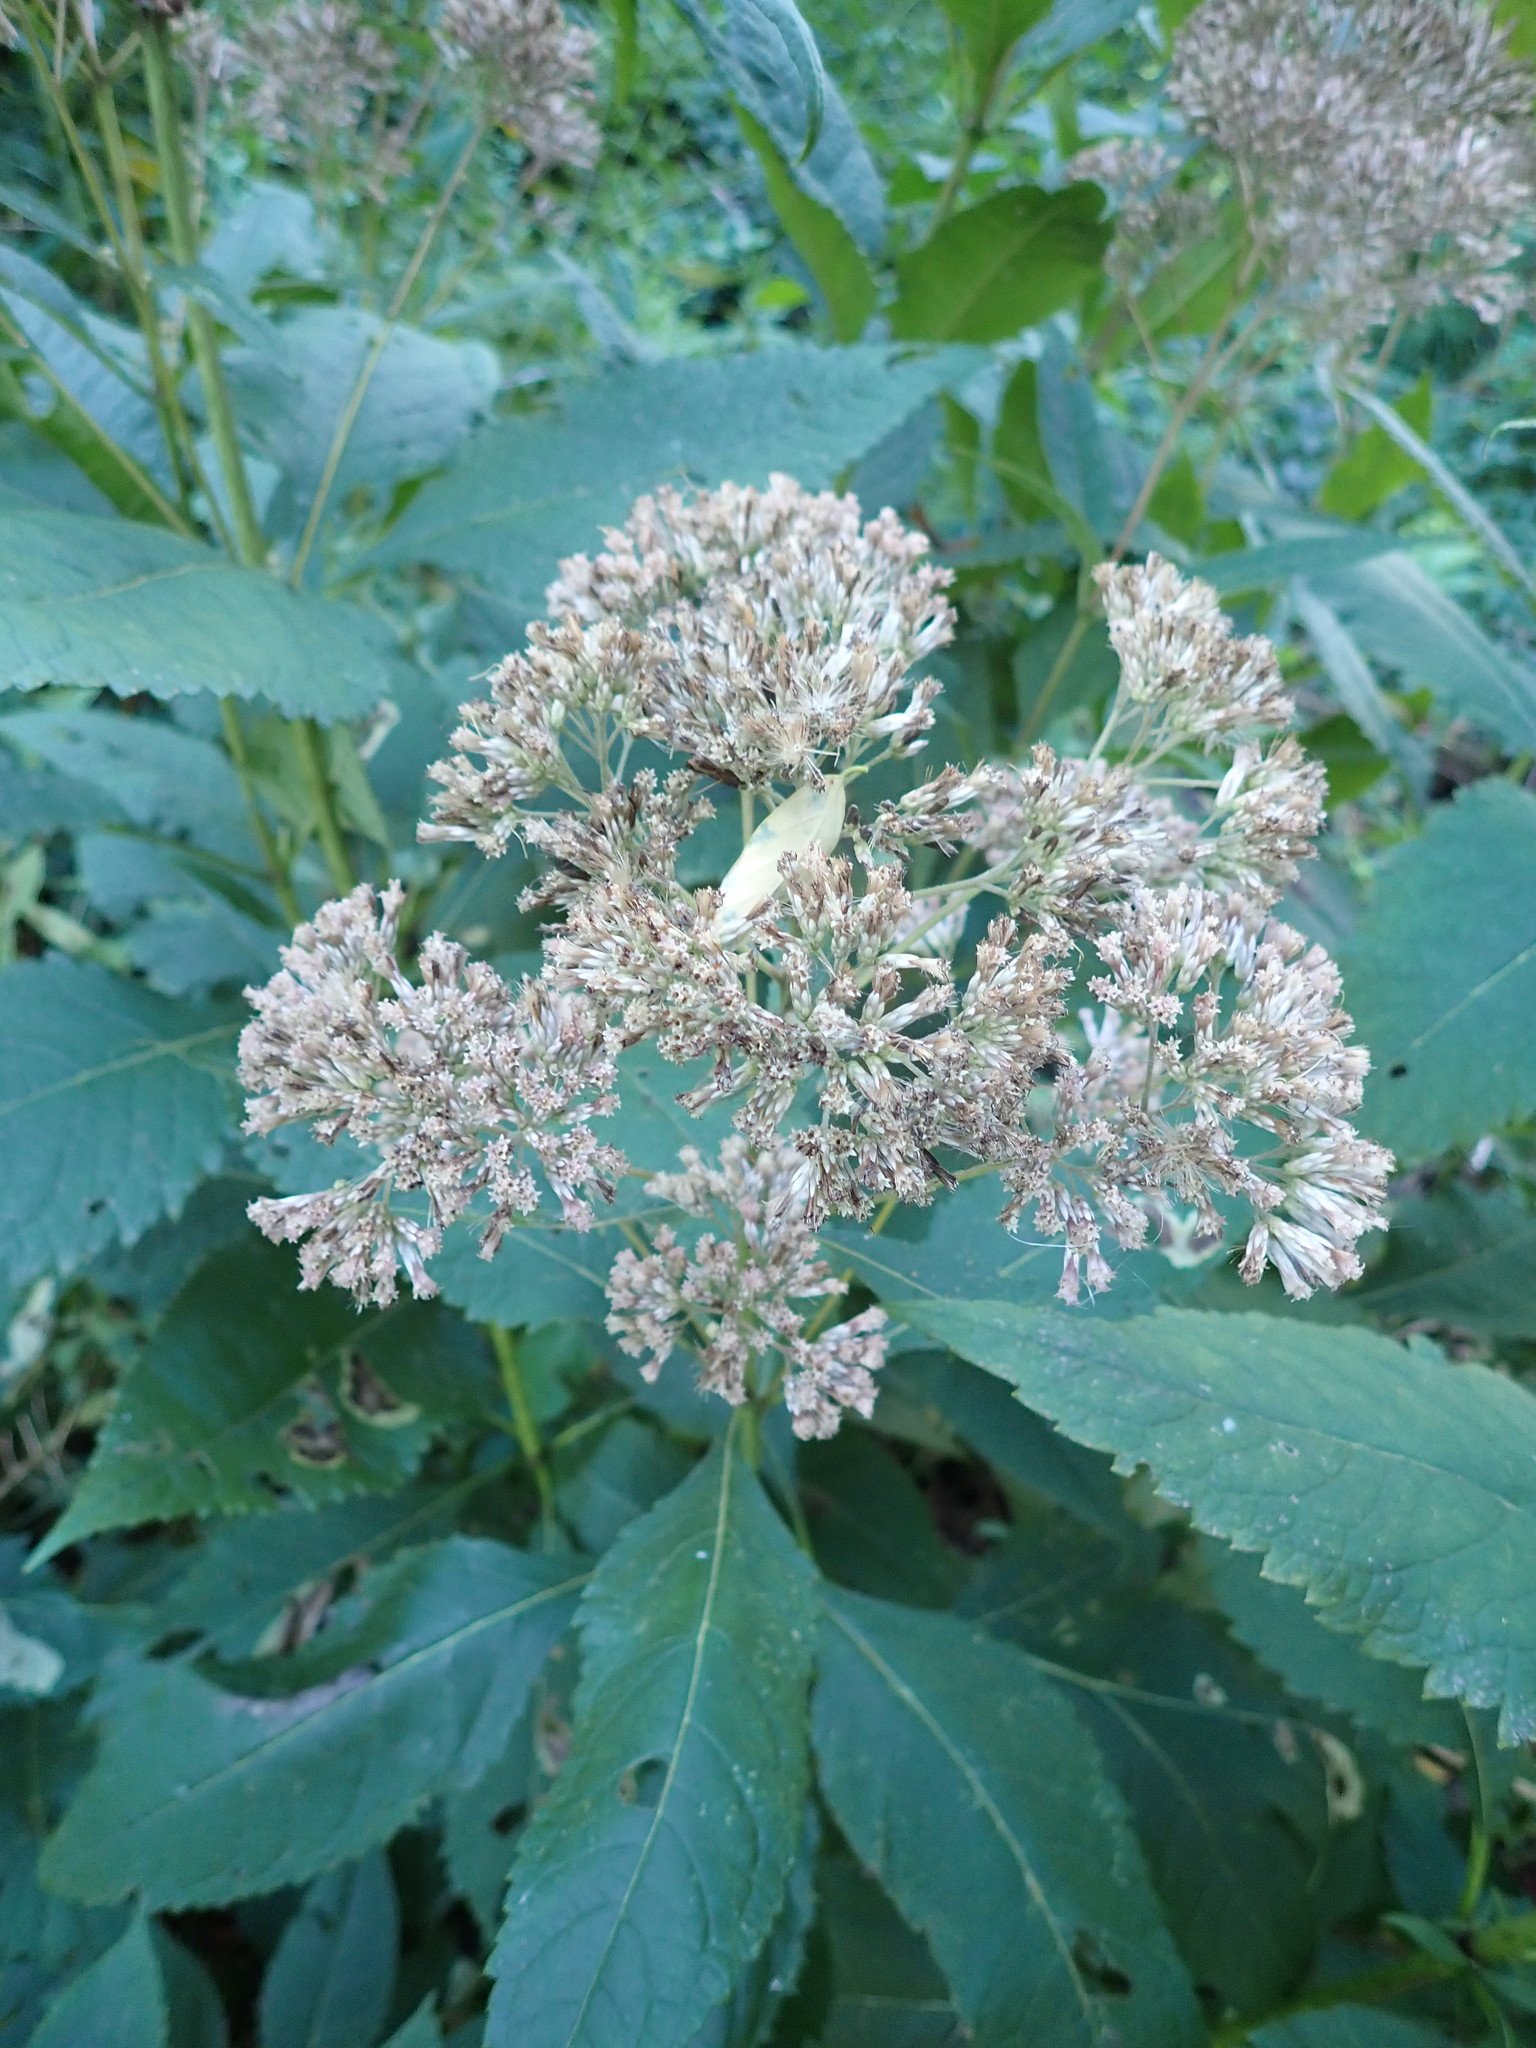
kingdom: Plantae
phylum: Tracheophyta
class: Magnoliopsida
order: Asterales
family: Asteraceae
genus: Eutrochium
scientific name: Eutrochium purpureum
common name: Gravelroot
